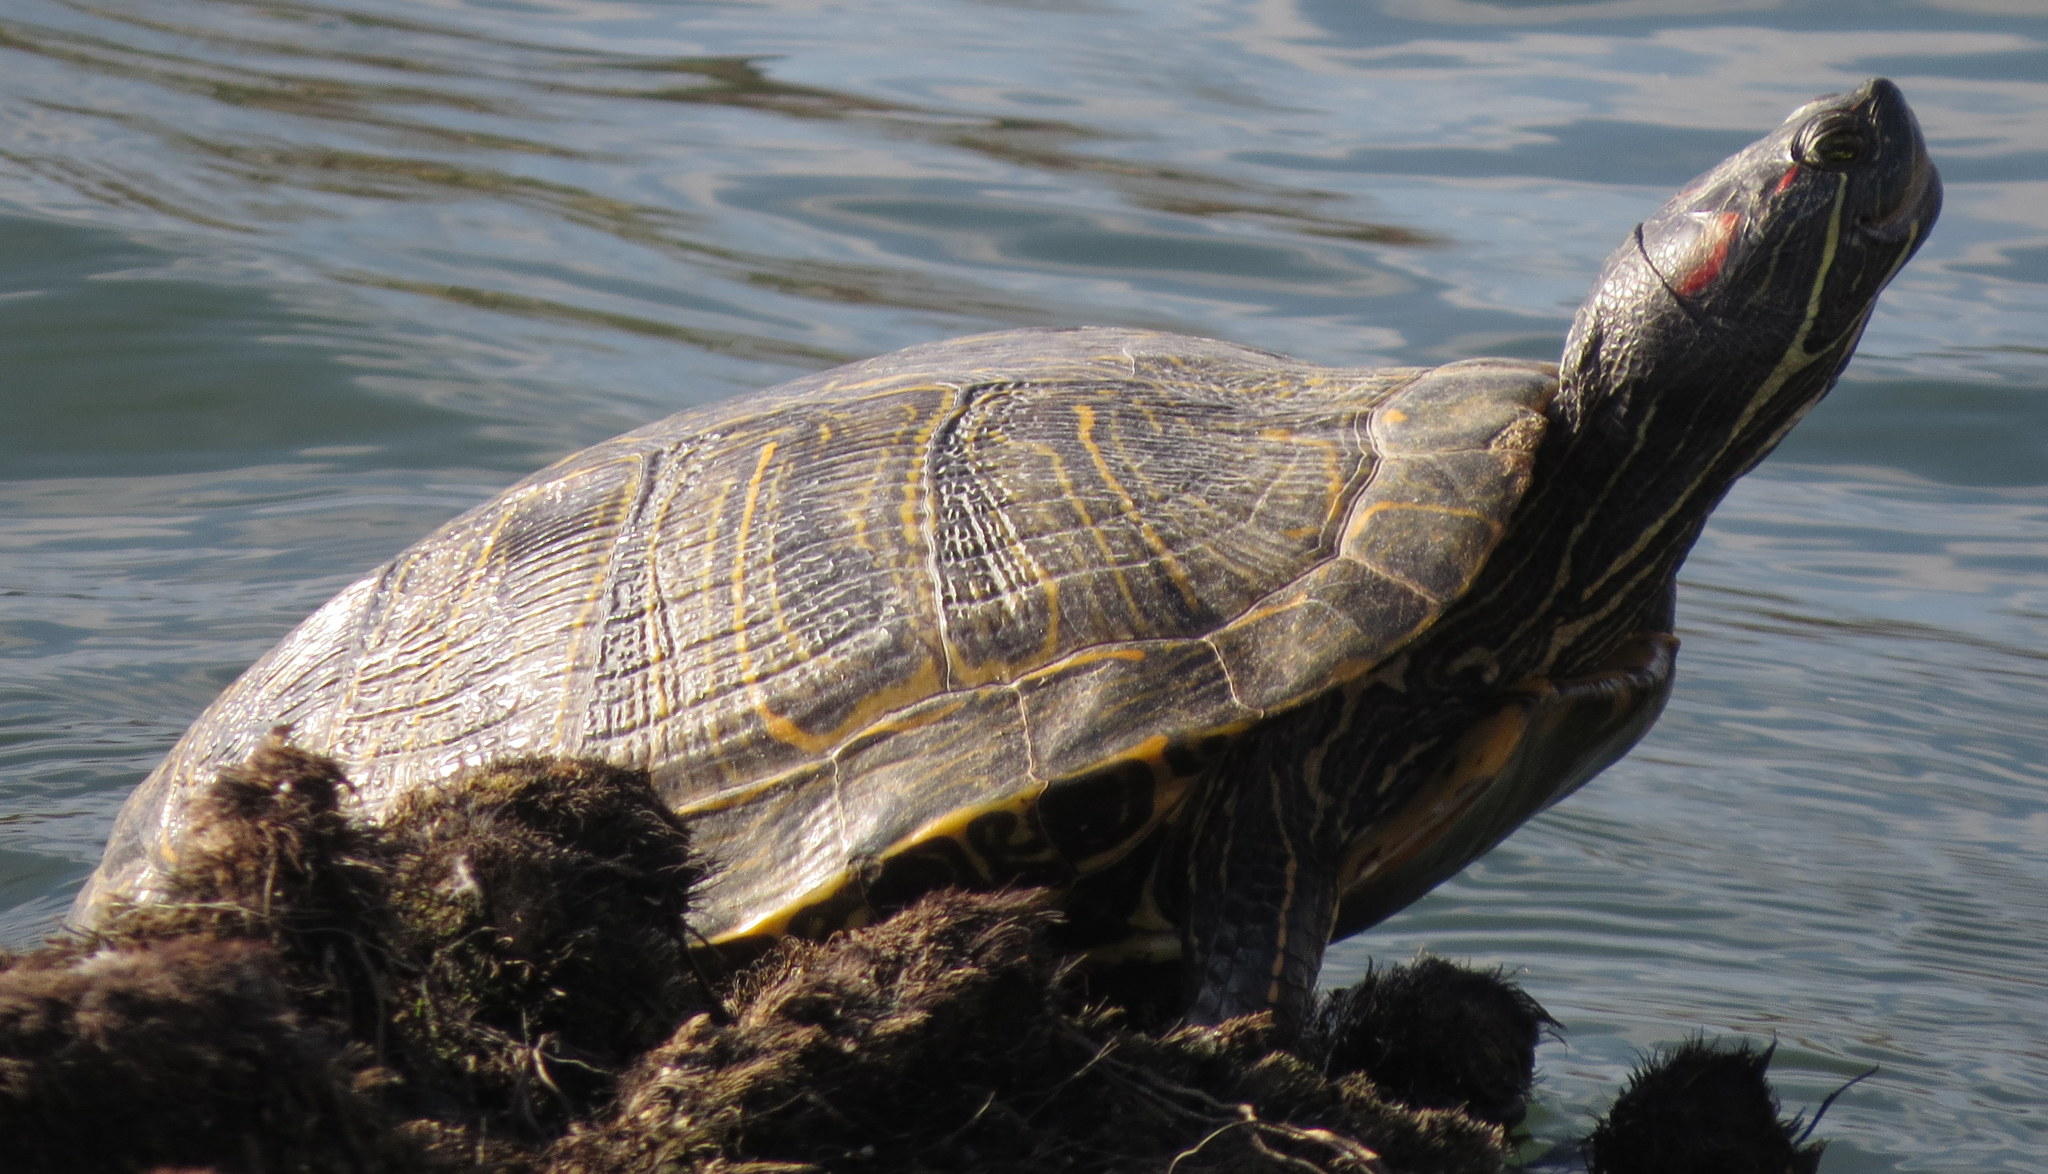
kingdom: Animalia
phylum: Chordata
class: Testudines
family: Emydidae
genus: Trachemys
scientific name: Trachemys scripta
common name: Slider
